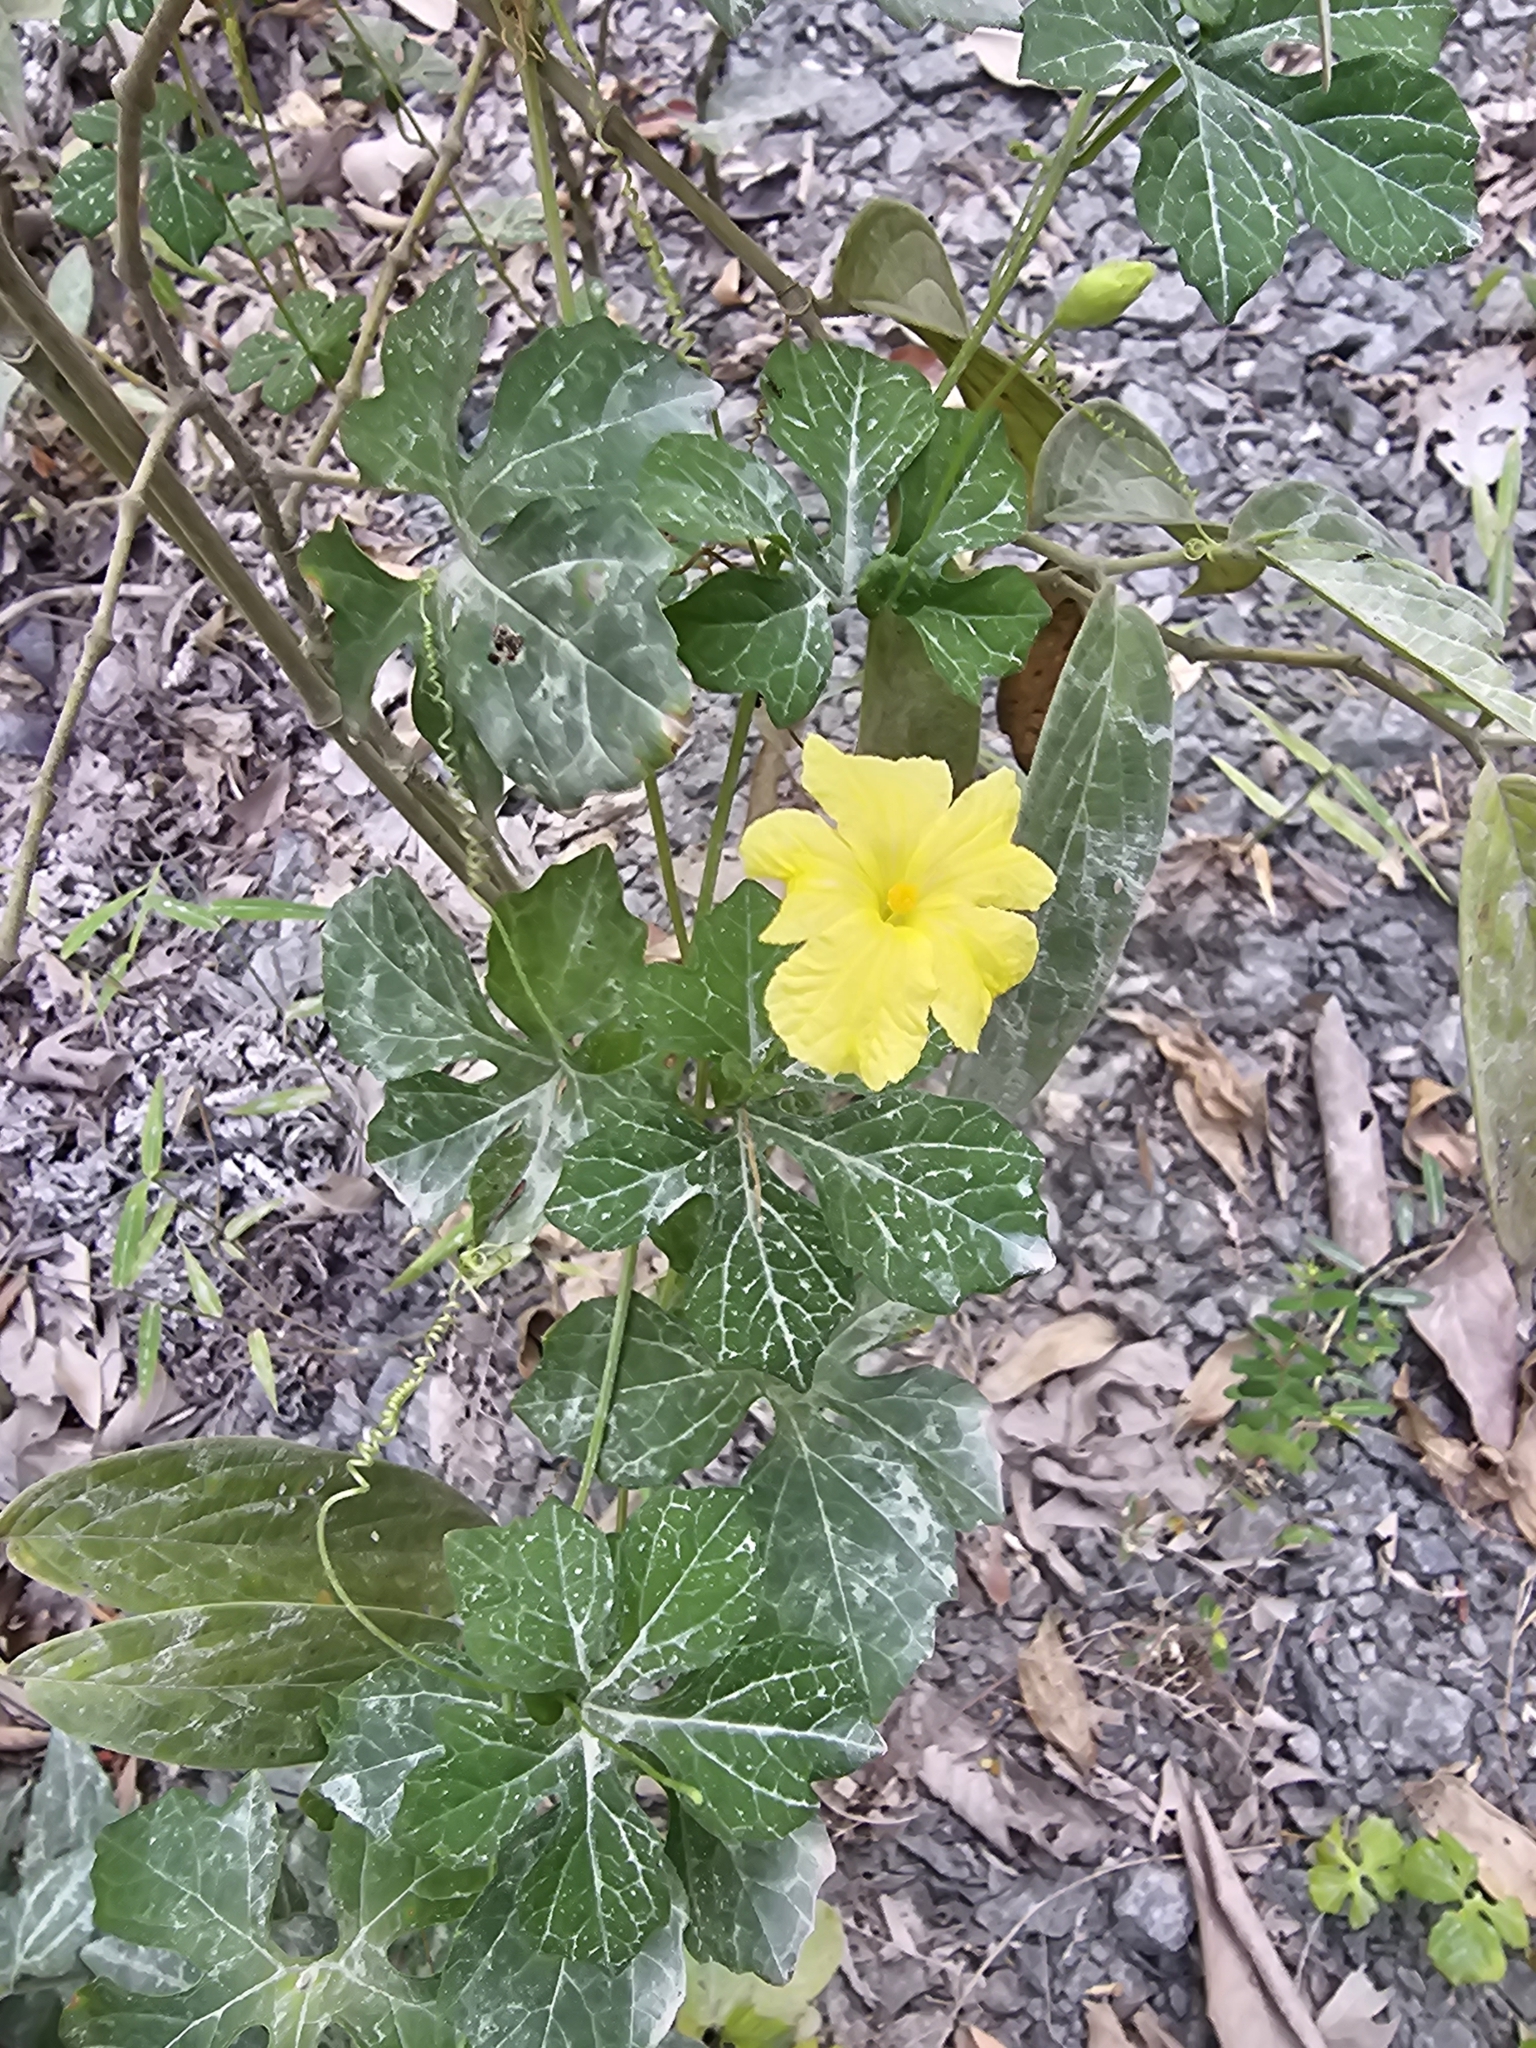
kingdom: Plantae
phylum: Tracheophyta
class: Magnoliopsida
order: Cucurbitales
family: Cucurbitaceae
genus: Momordica
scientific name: Momordica charantia
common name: Balsampear
